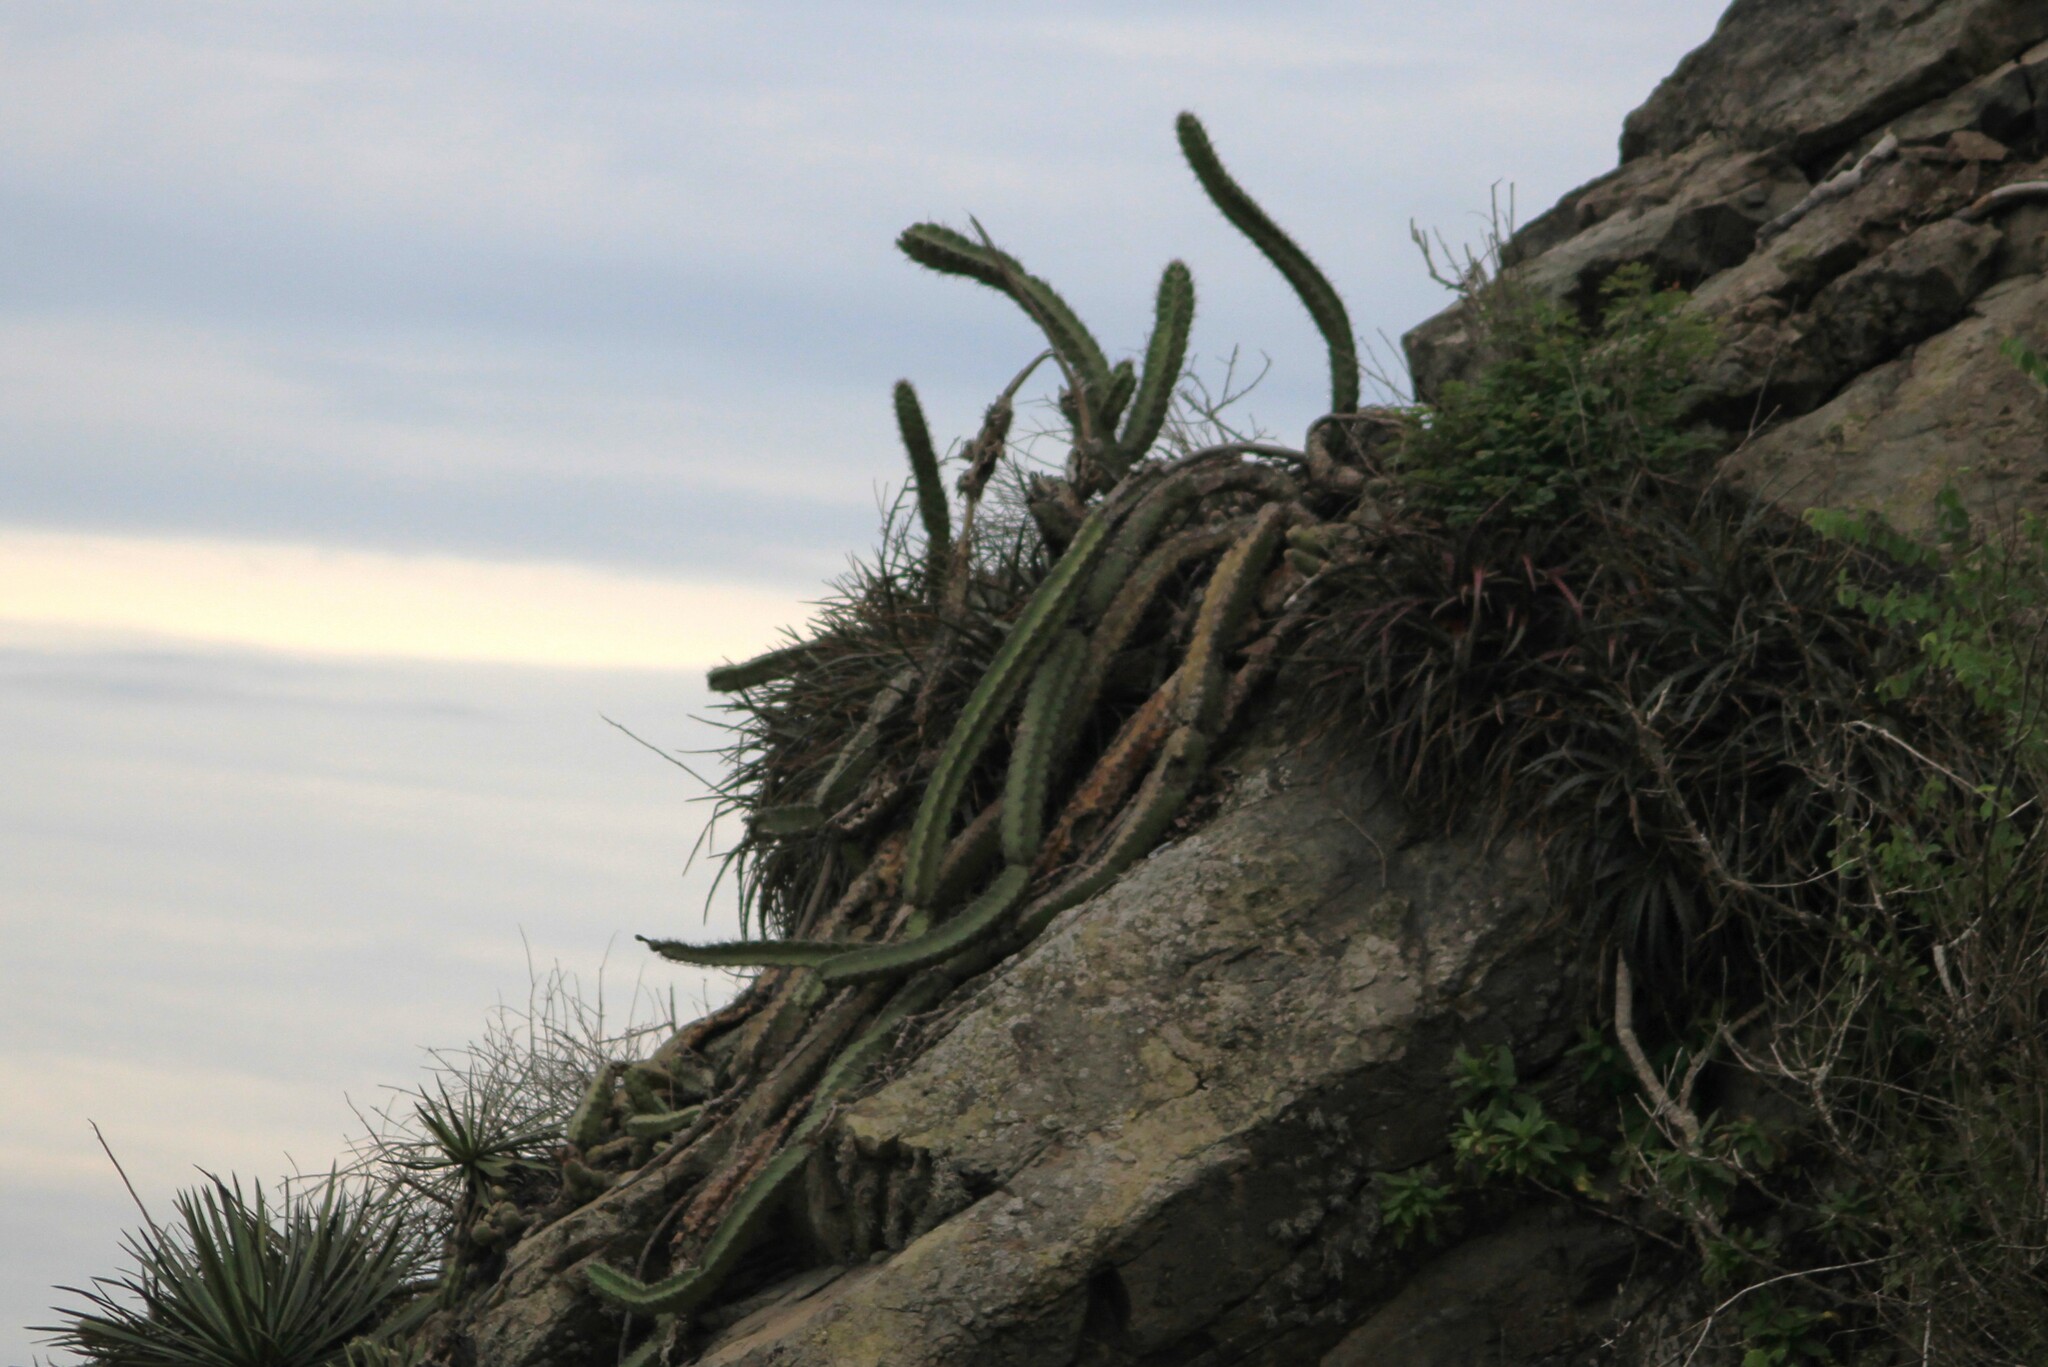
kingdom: Plantae
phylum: Tracheophyta
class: Magnoliopsida
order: Caryophyllales
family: Cactaceae
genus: Stenocereus
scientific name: Stenocereus standleyi
